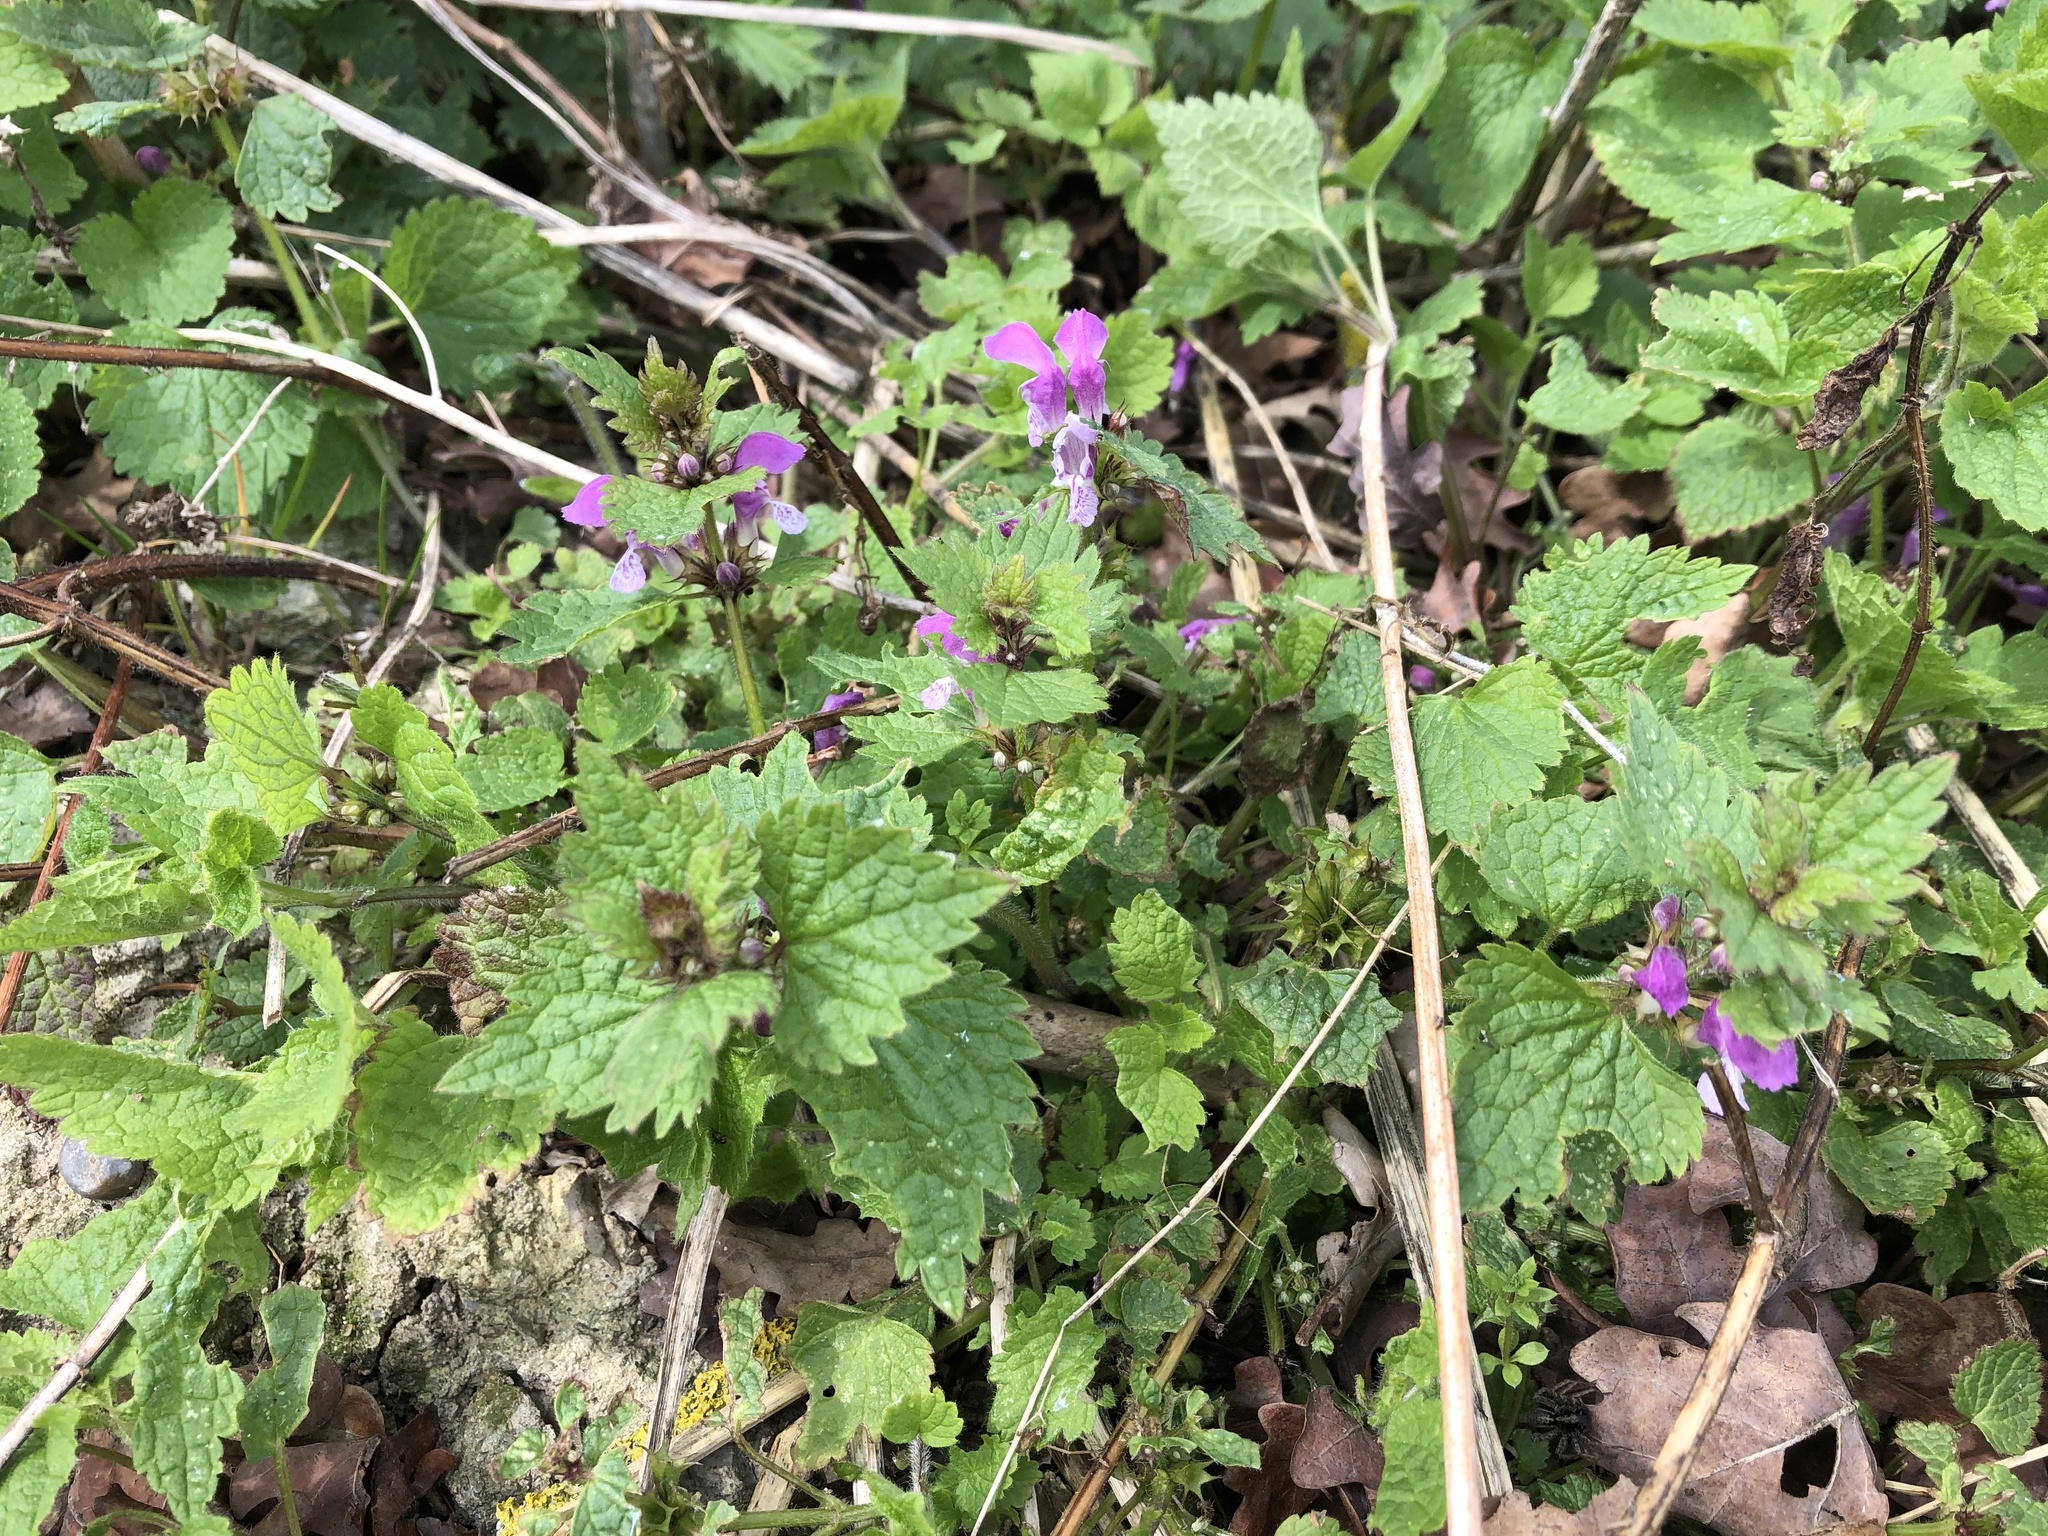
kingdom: Plantae
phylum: Tracheophyta
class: Magnoliopsida
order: Lamiales
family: Lamiaceae
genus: Lamium
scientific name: Lamium maculatum
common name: Spotted dead-nettle
